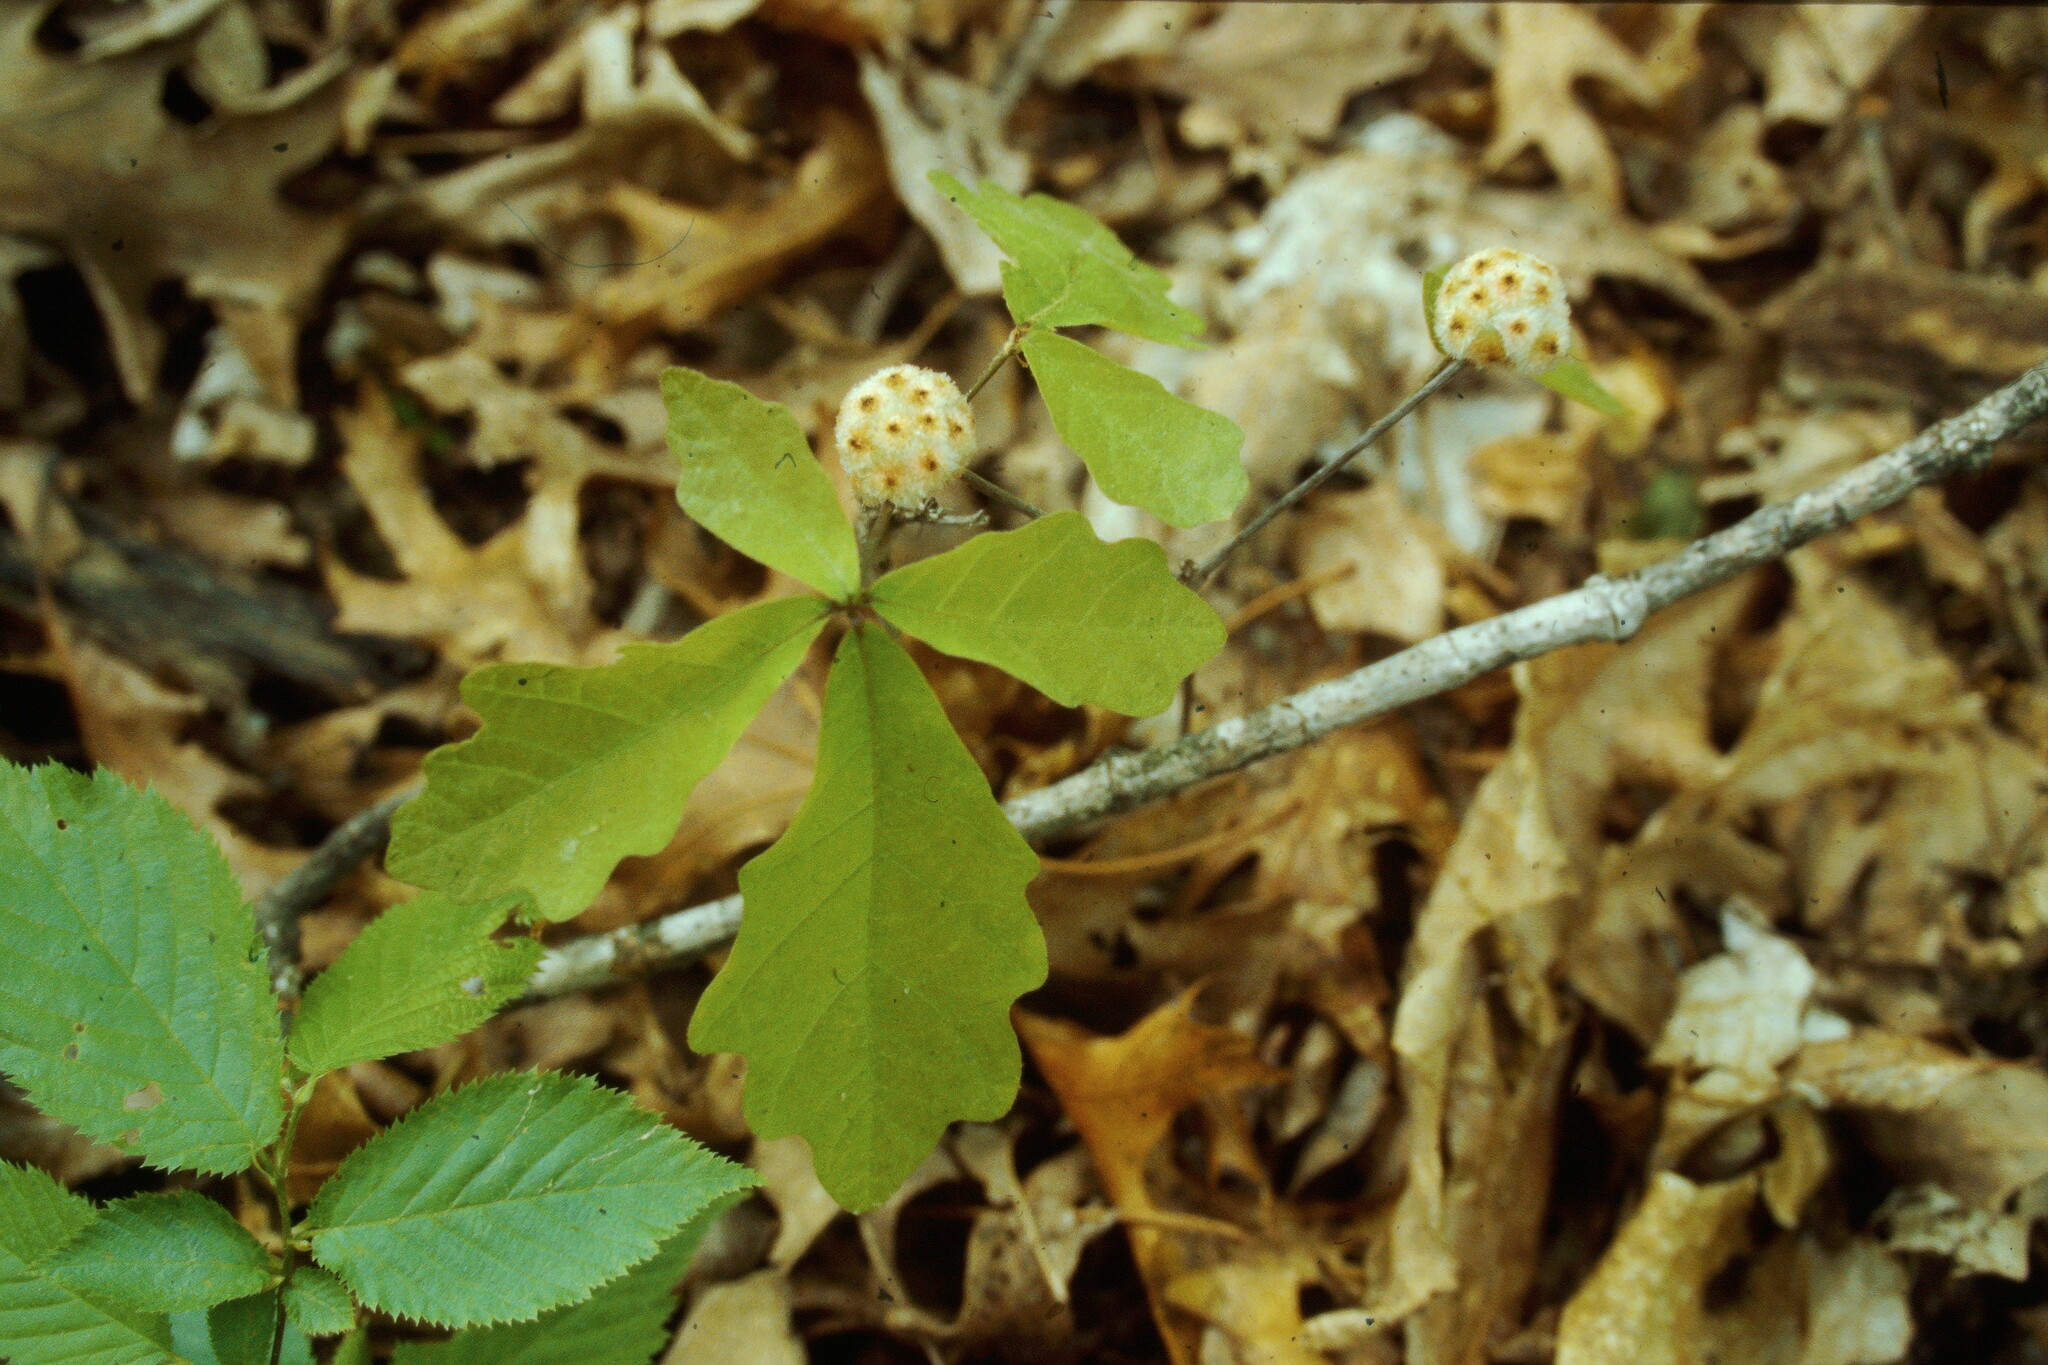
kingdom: Animalia
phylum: Arthropoda
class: Insecta
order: Hymenoptera
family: Cynipidae
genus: Callirhytis
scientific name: Callirhytis
